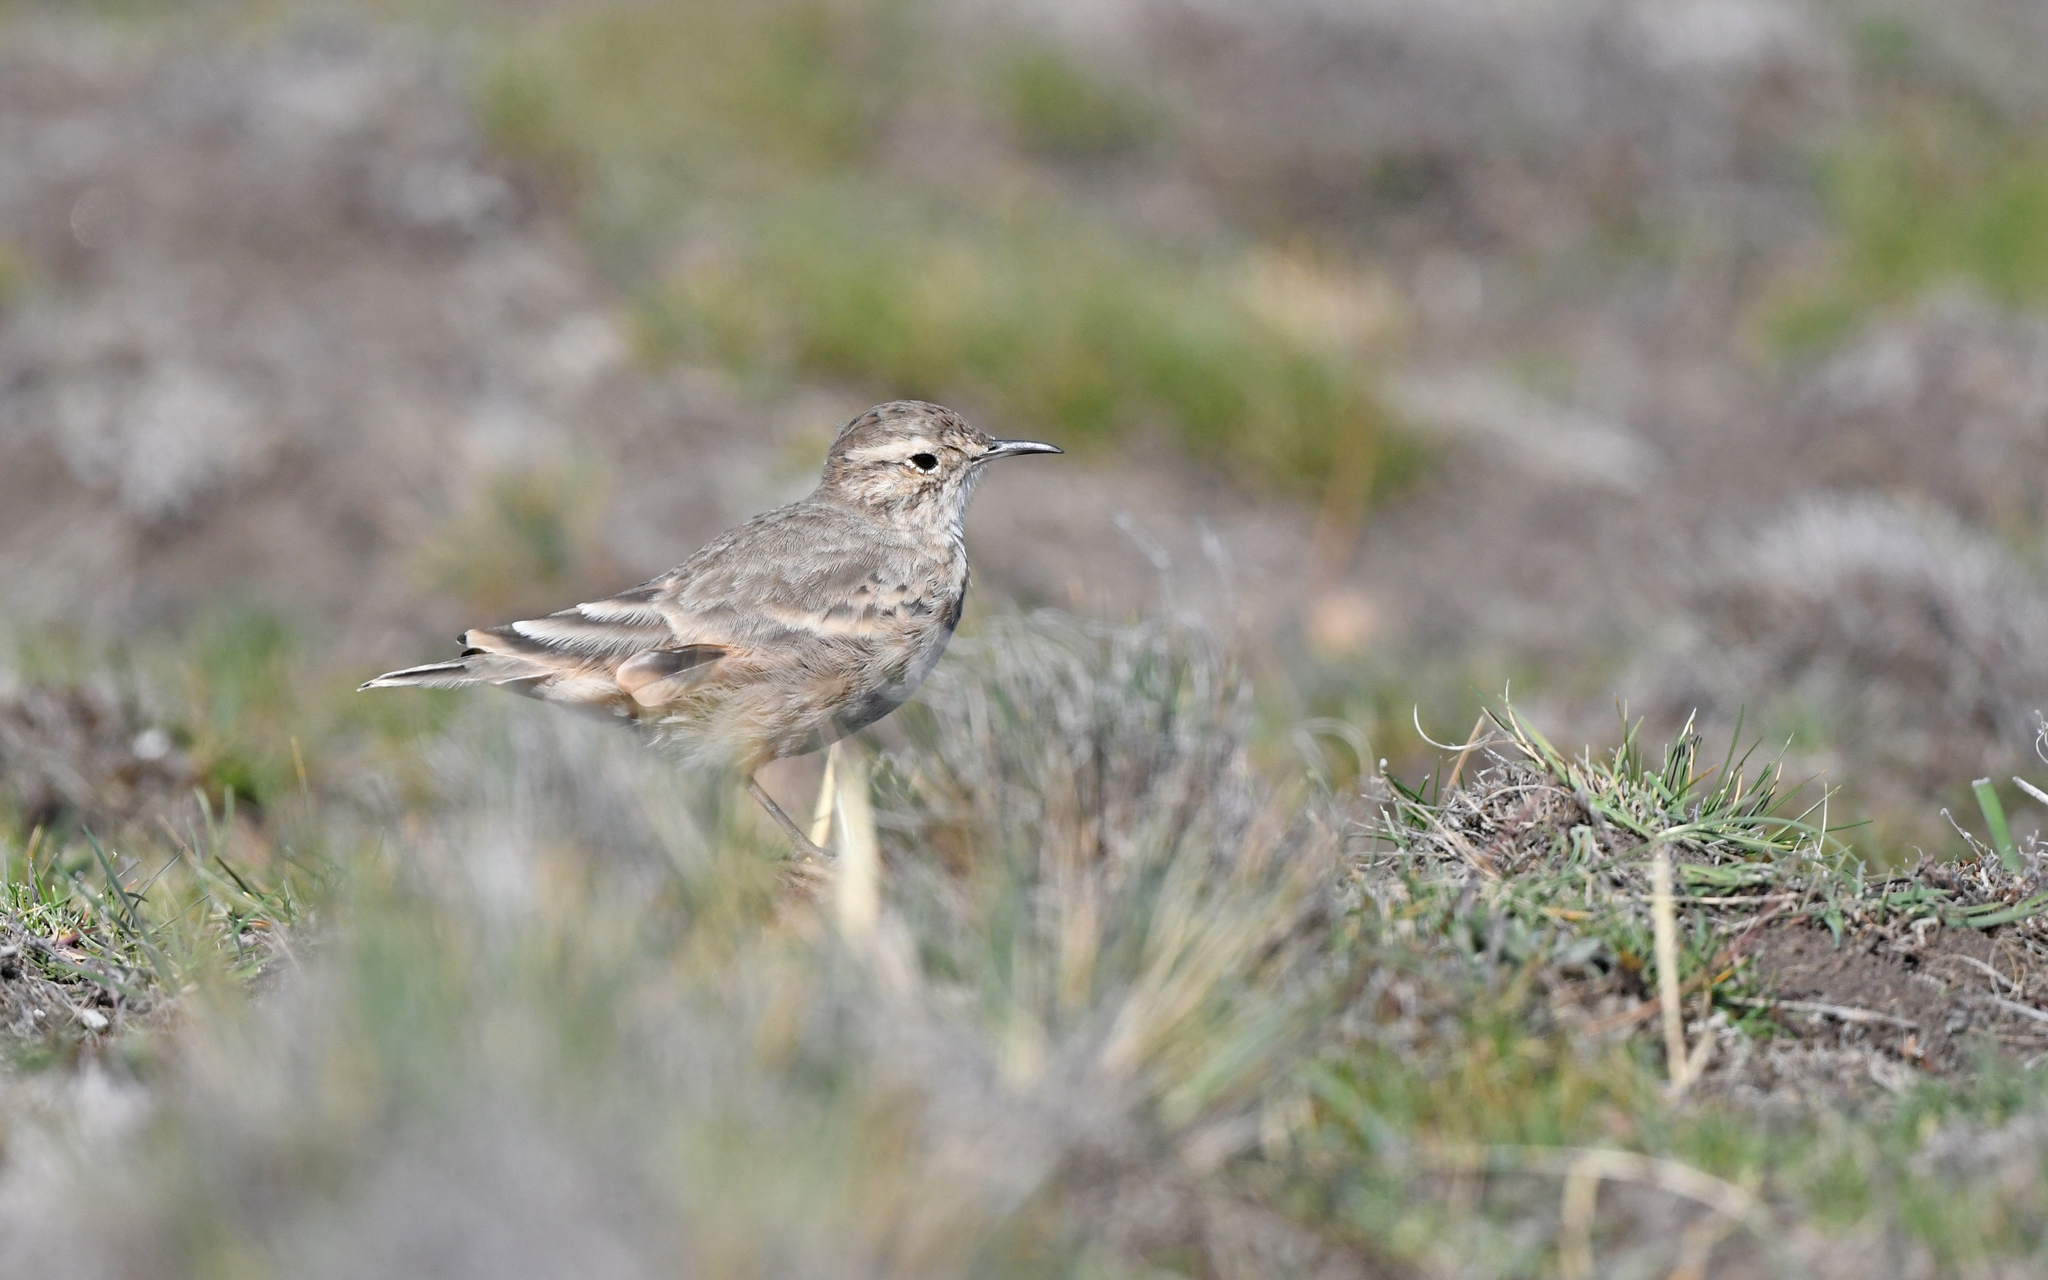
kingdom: Animalia
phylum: Chordata
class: Aves
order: Passeriformes
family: Furnariidae
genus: Geositta
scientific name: Geositta cunicularia
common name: Common miner
